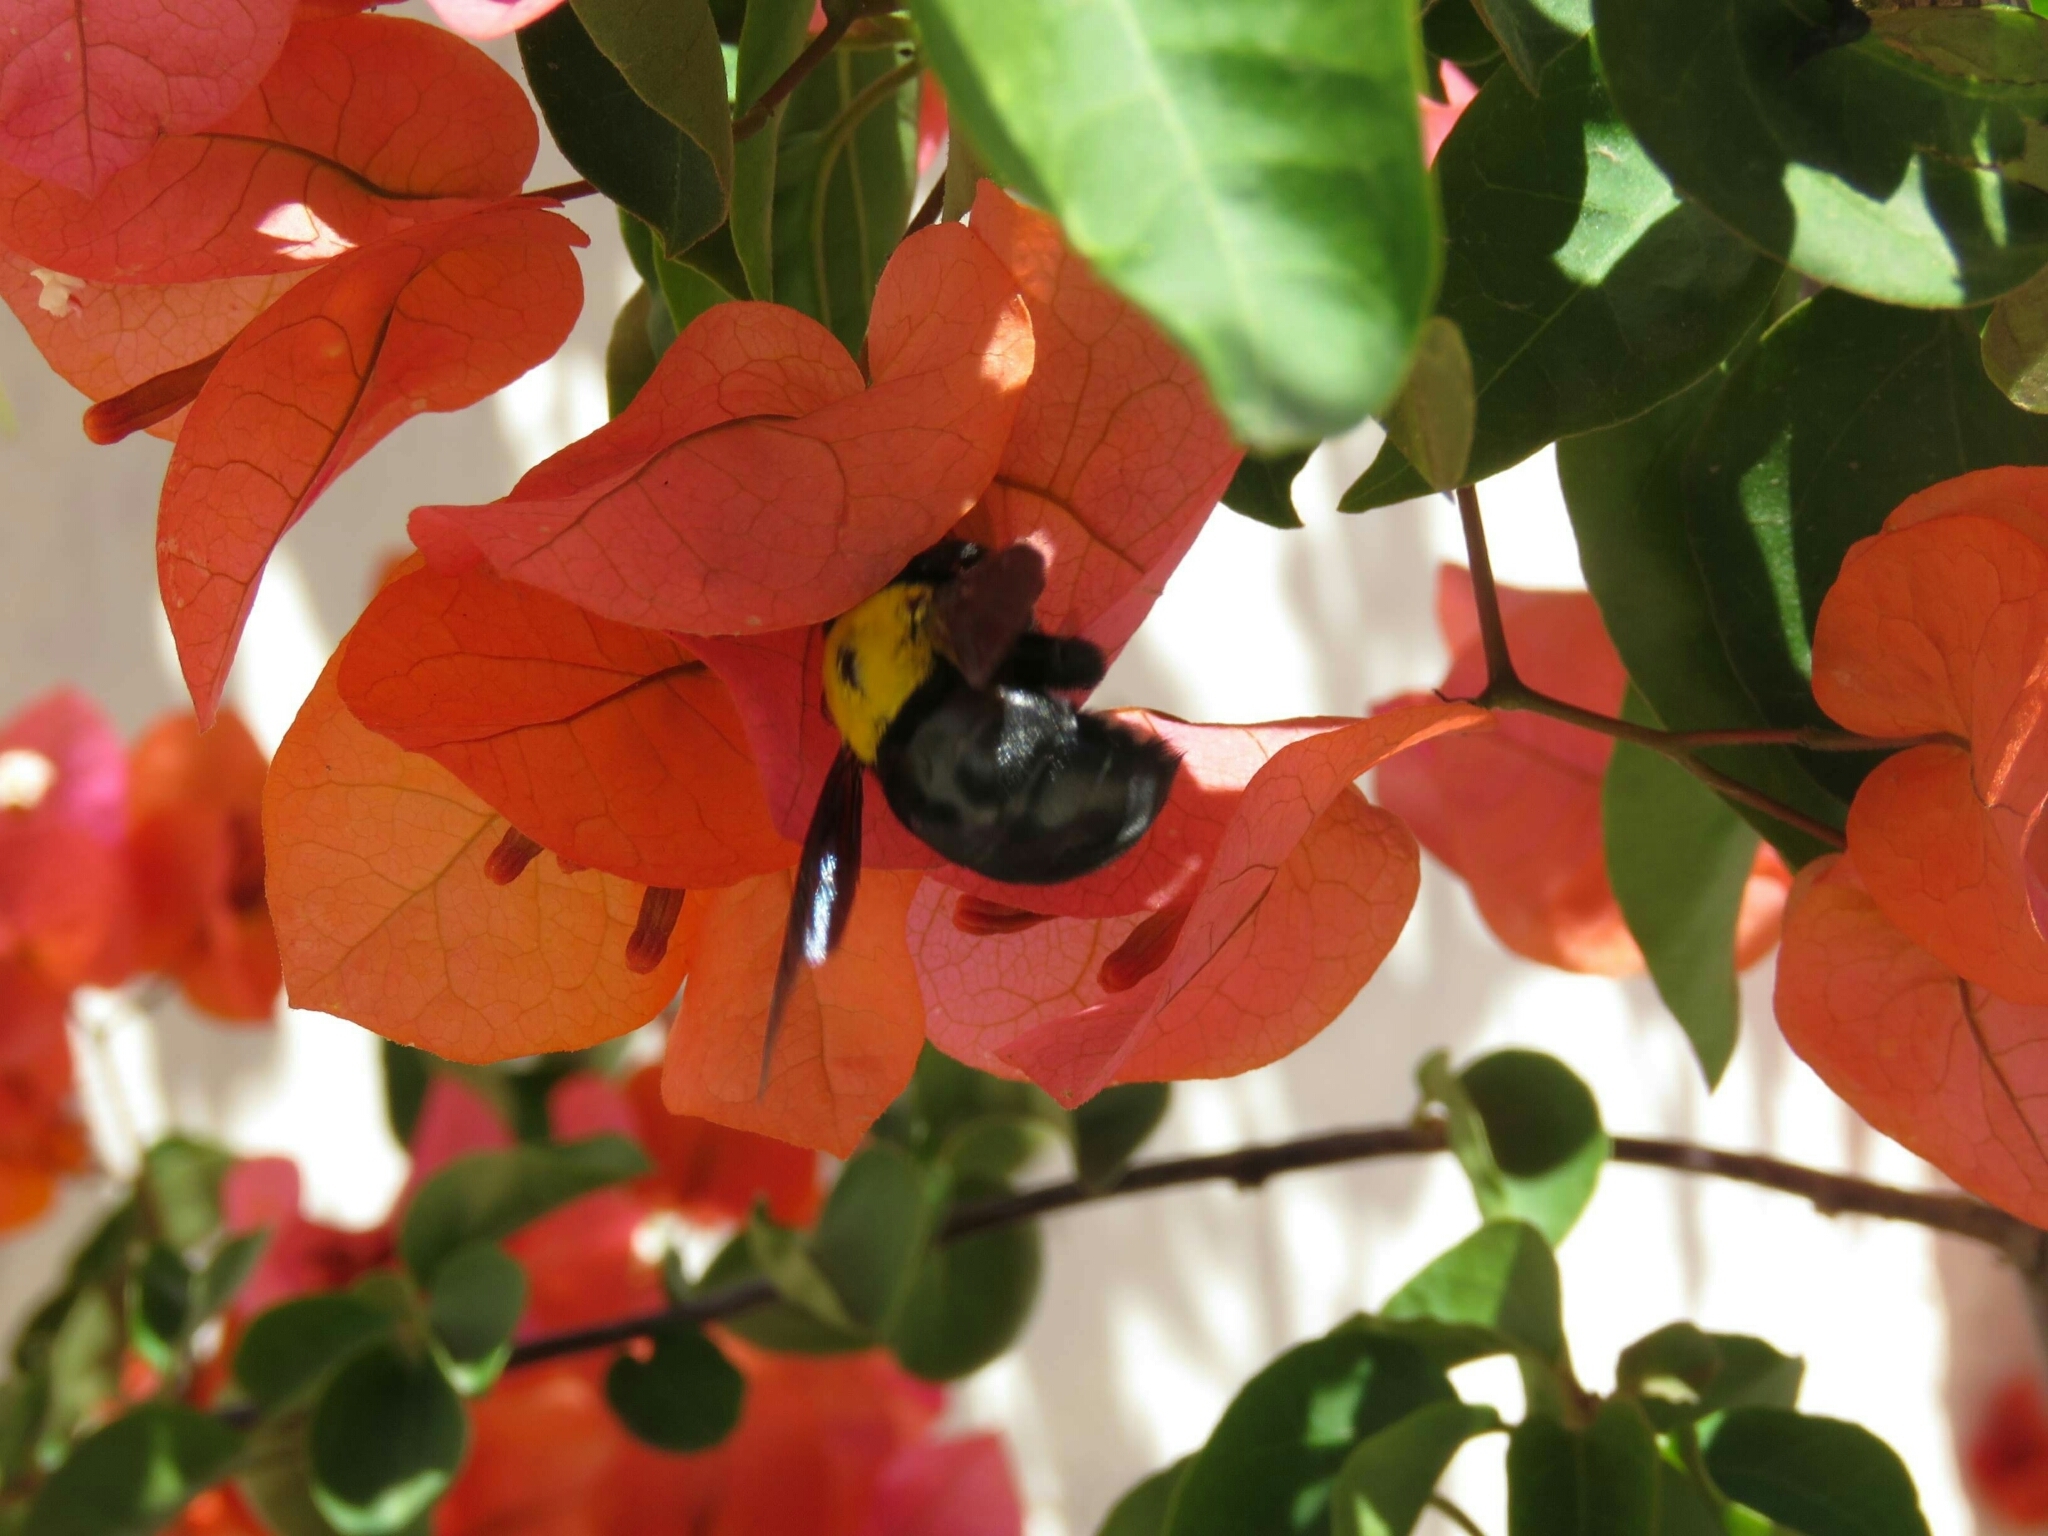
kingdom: Animalia
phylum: Arthropoda
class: Insecta
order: Hymenoptera
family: Apidae
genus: Xylocopa
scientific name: Xylocopa pubescens
